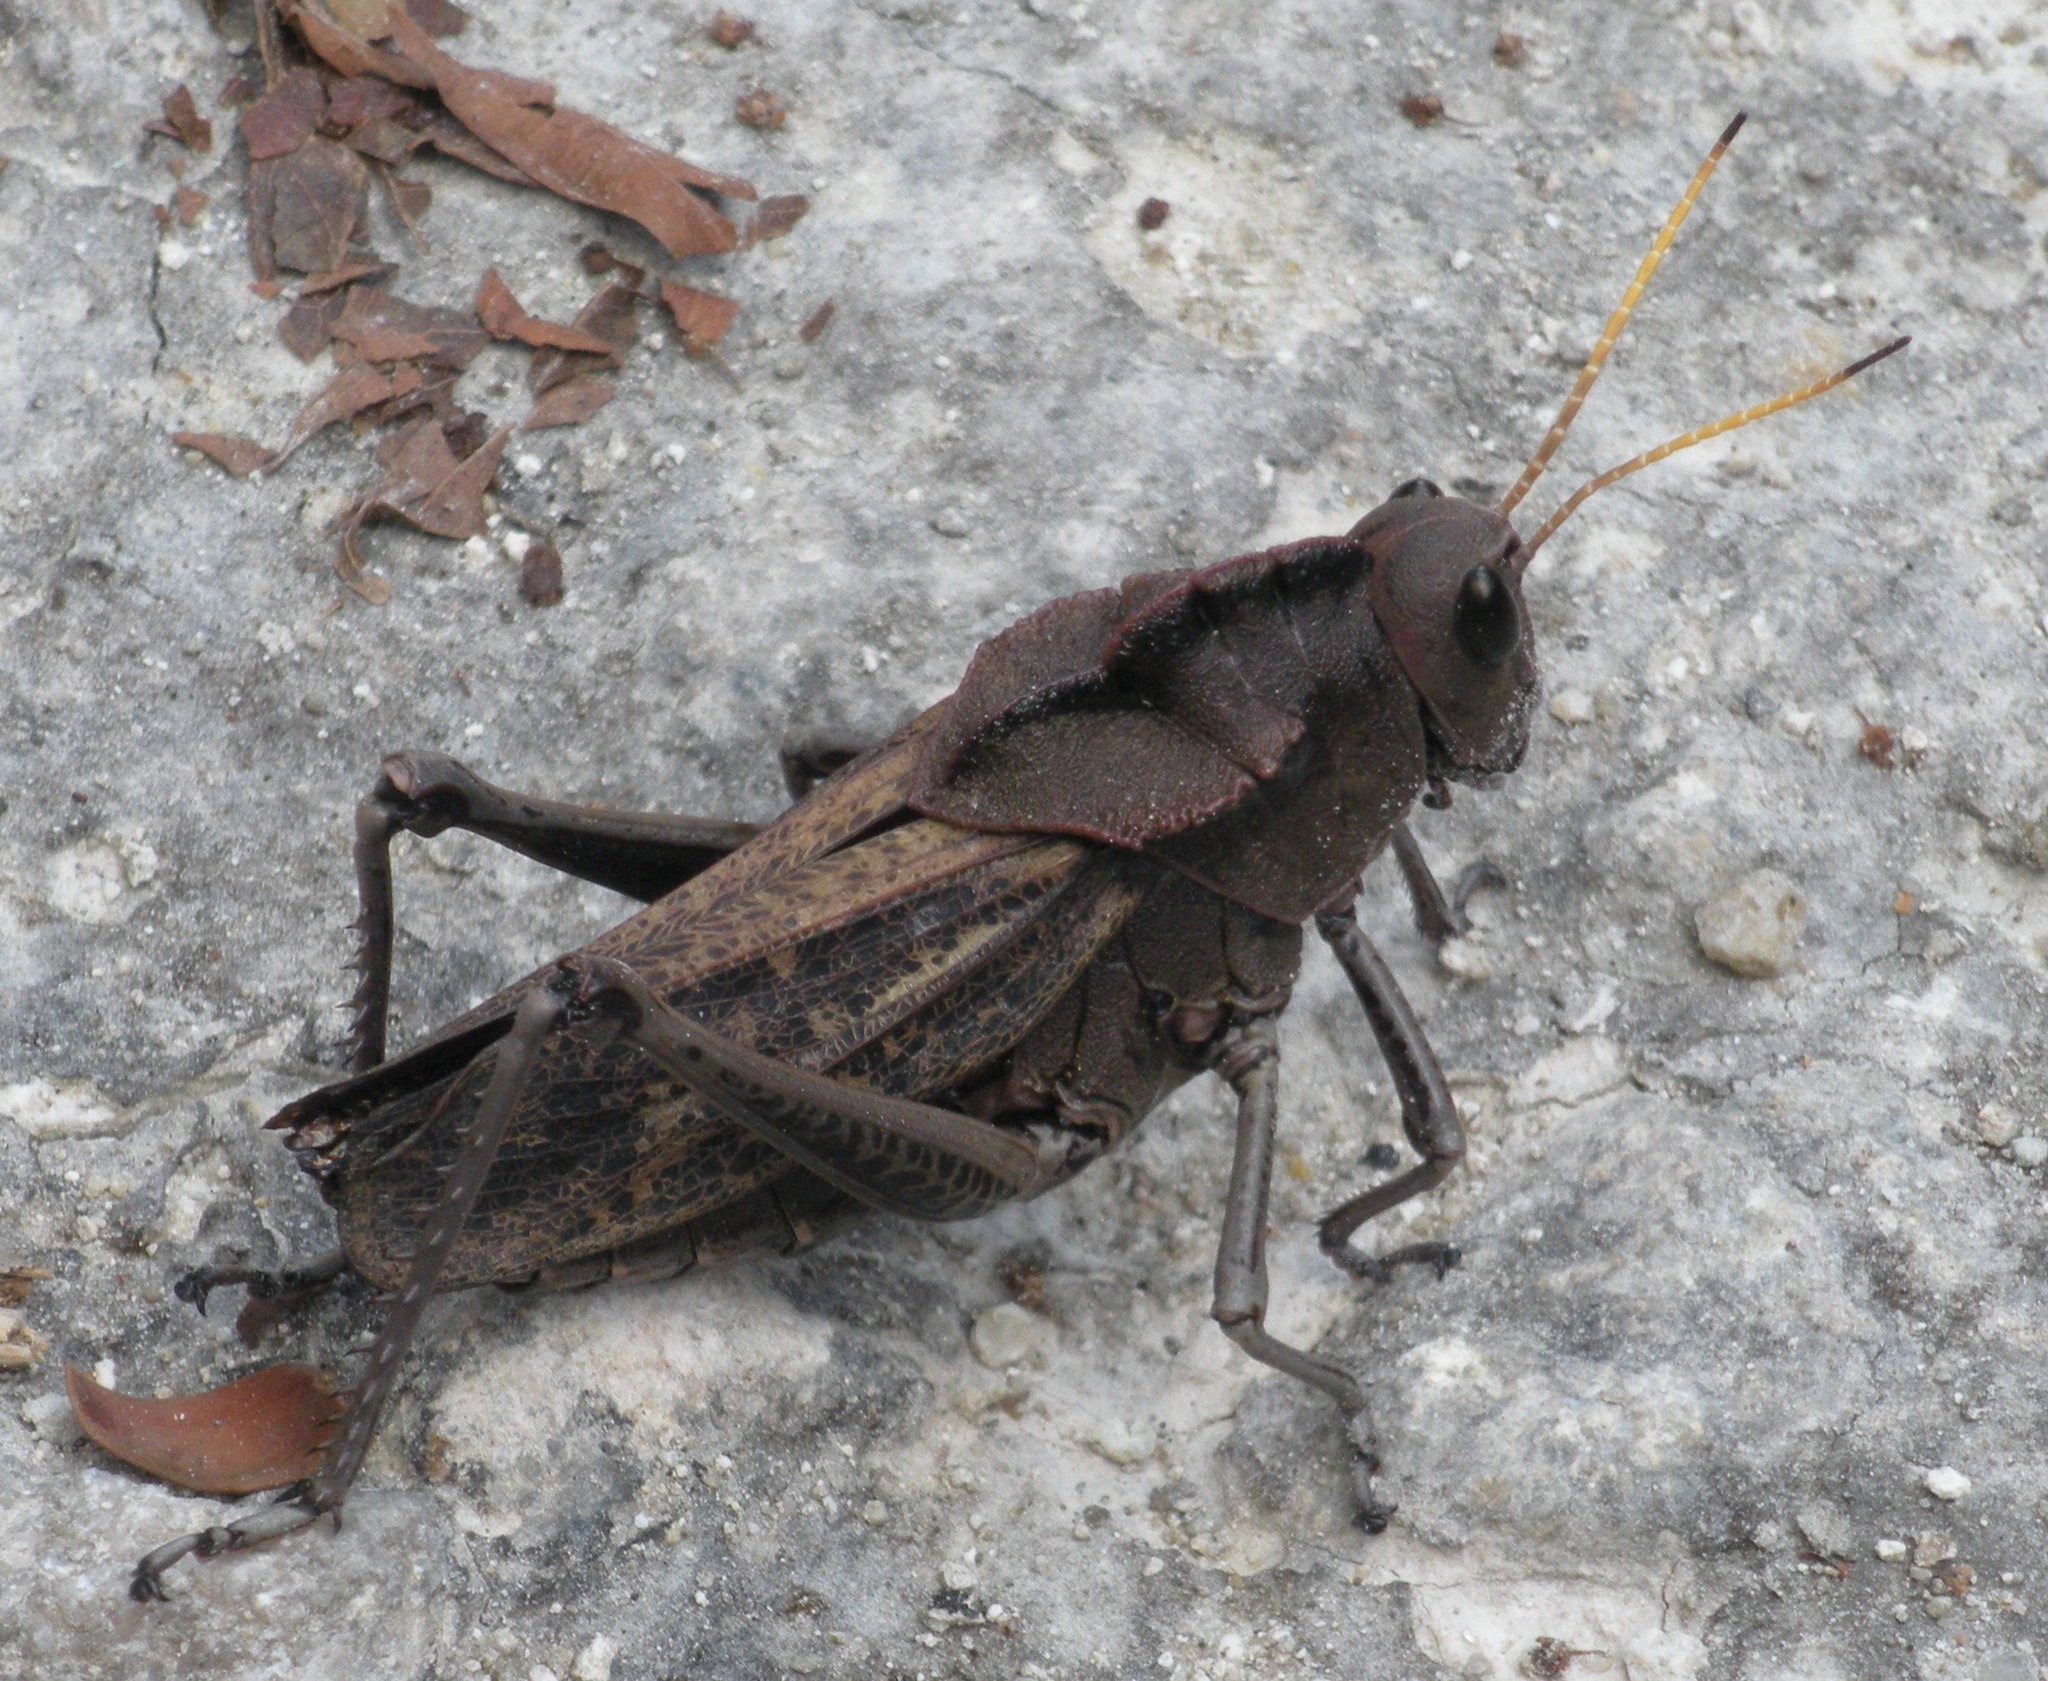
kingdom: Animalia
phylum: Arthropoda
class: Insecta
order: Orthoptera
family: Romaleidae
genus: Romalea
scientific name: Romalea
